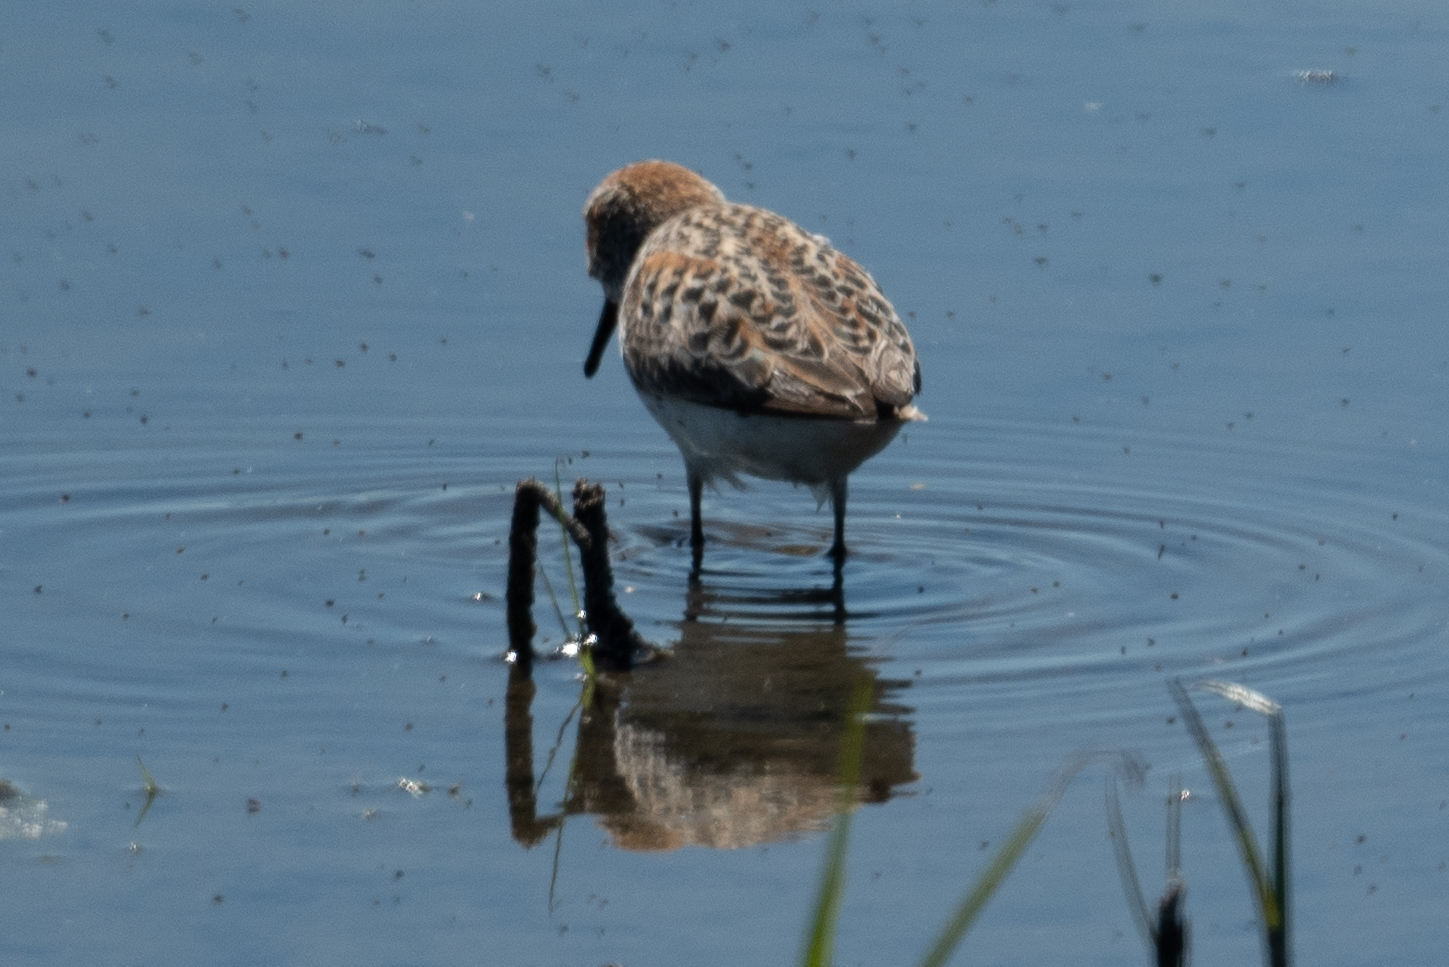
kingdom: Animalia
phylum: Chordata
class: Aves
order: Charadriiformes
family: Scolopacidae
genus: Calidris
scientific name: Calidris mauri
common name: Western sandpiper
